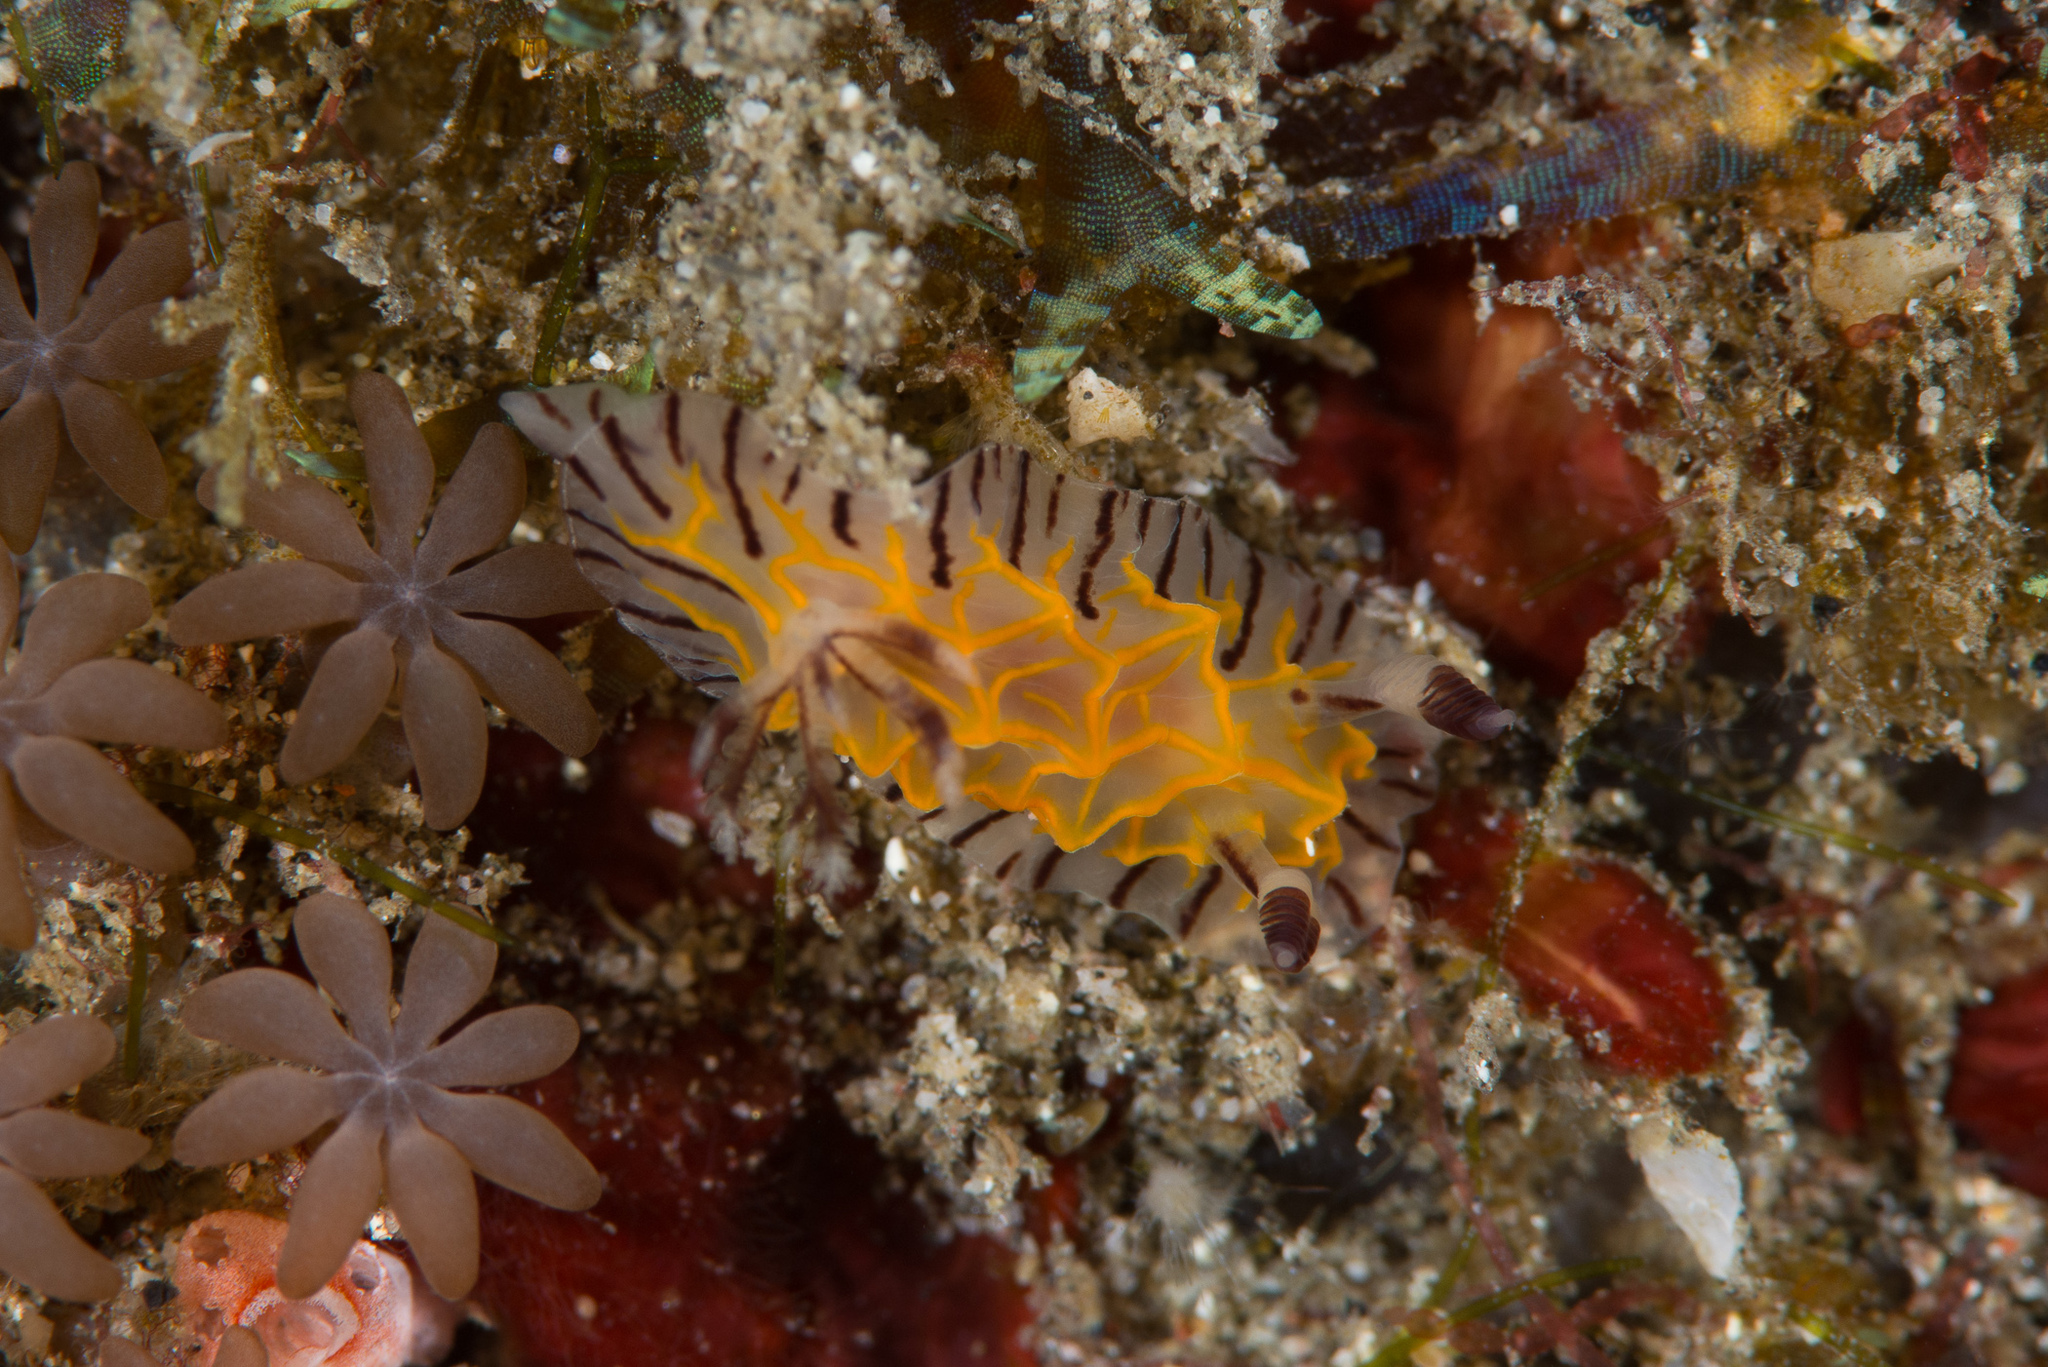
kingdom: Animalia
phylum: Mollusca
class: Gastropoda
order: Nudibranchia
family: Discodorididae
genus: Halgerda
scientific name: Halgerda willeyi
